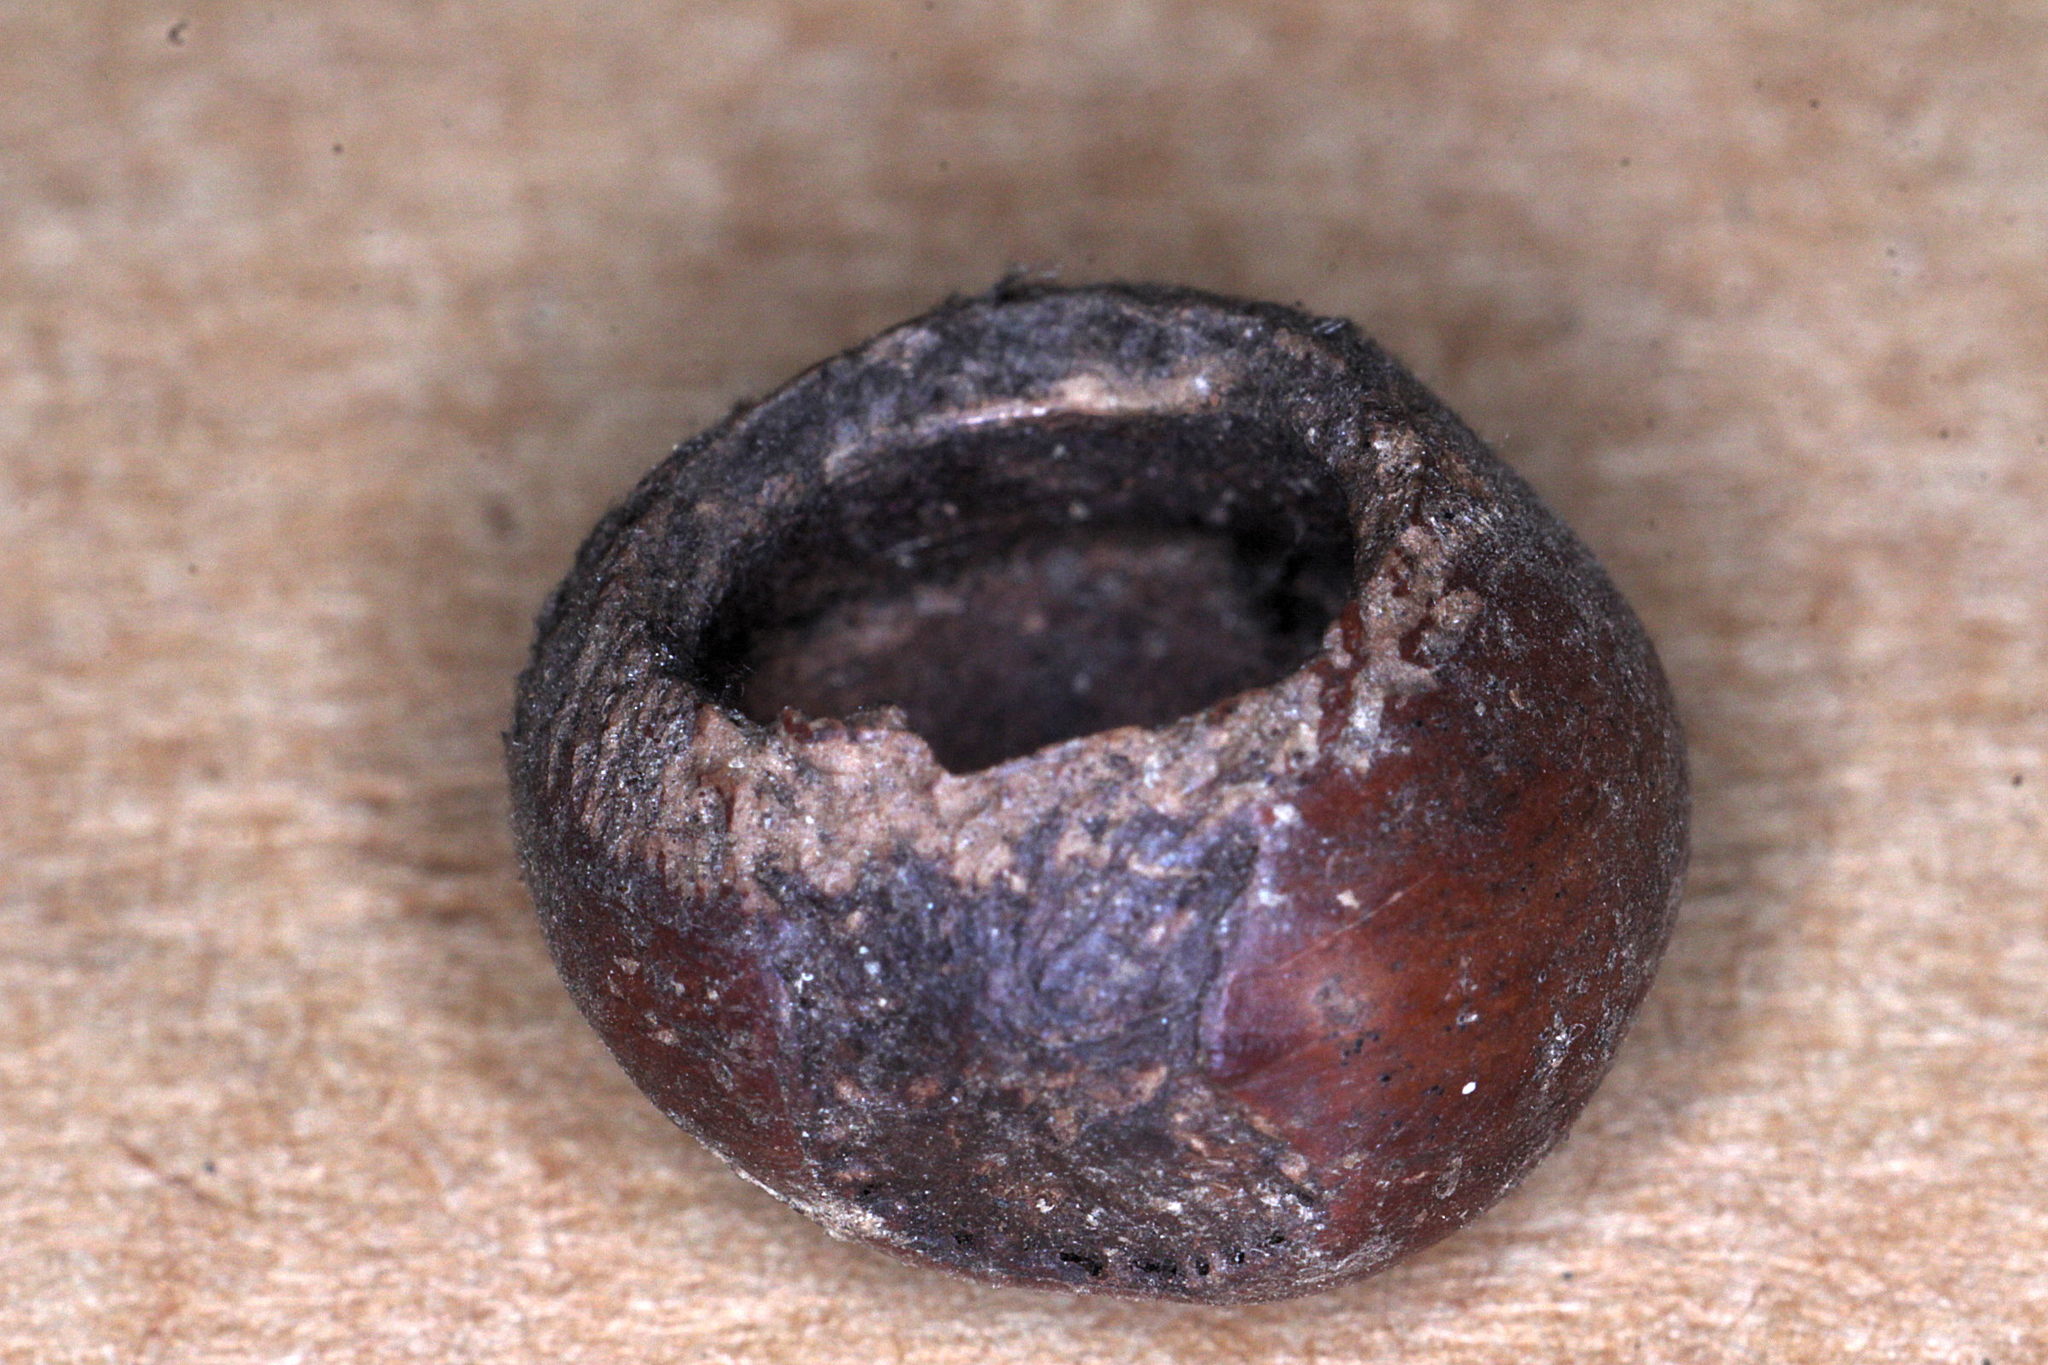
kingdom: Animalia
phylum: Chordata
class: Mammalia
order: Rodentia
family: Gliridae
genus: Muscardinus
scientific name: Muscardinus avellanarius
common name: Hazel dormouse
